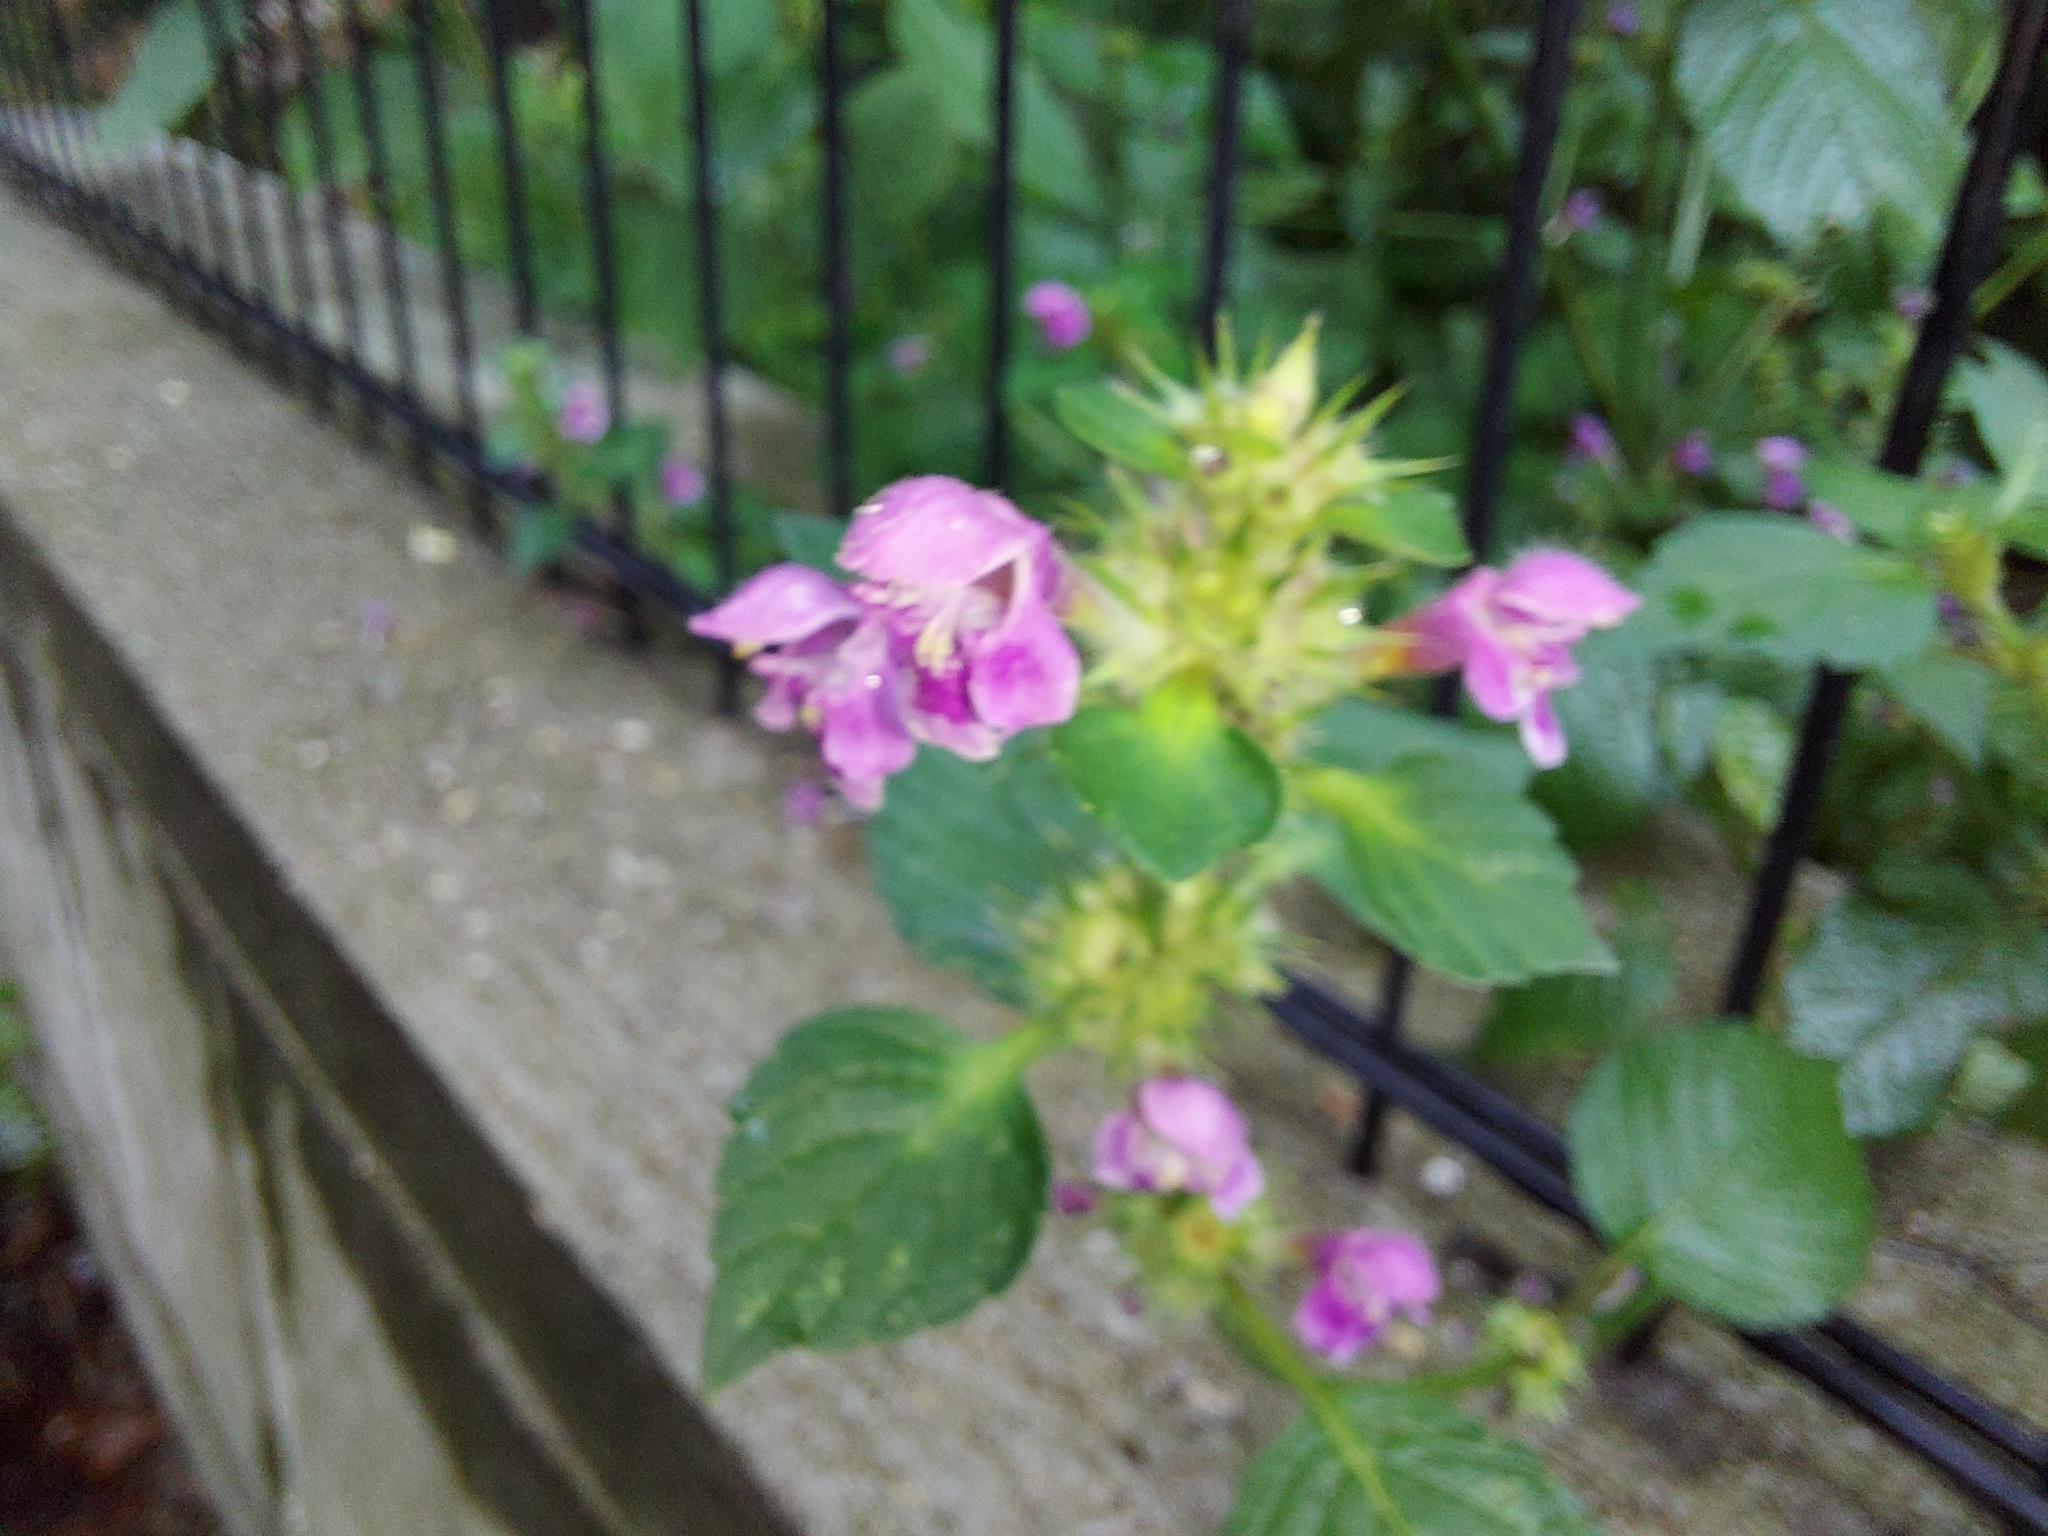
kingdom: Plantae
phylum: Tracheophyta
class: Magnoliopsida
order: Lamiales
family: Lamiaceae
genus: Galeopsis
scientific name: Galeopsis pubescens
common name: Downy hemp-nettle
